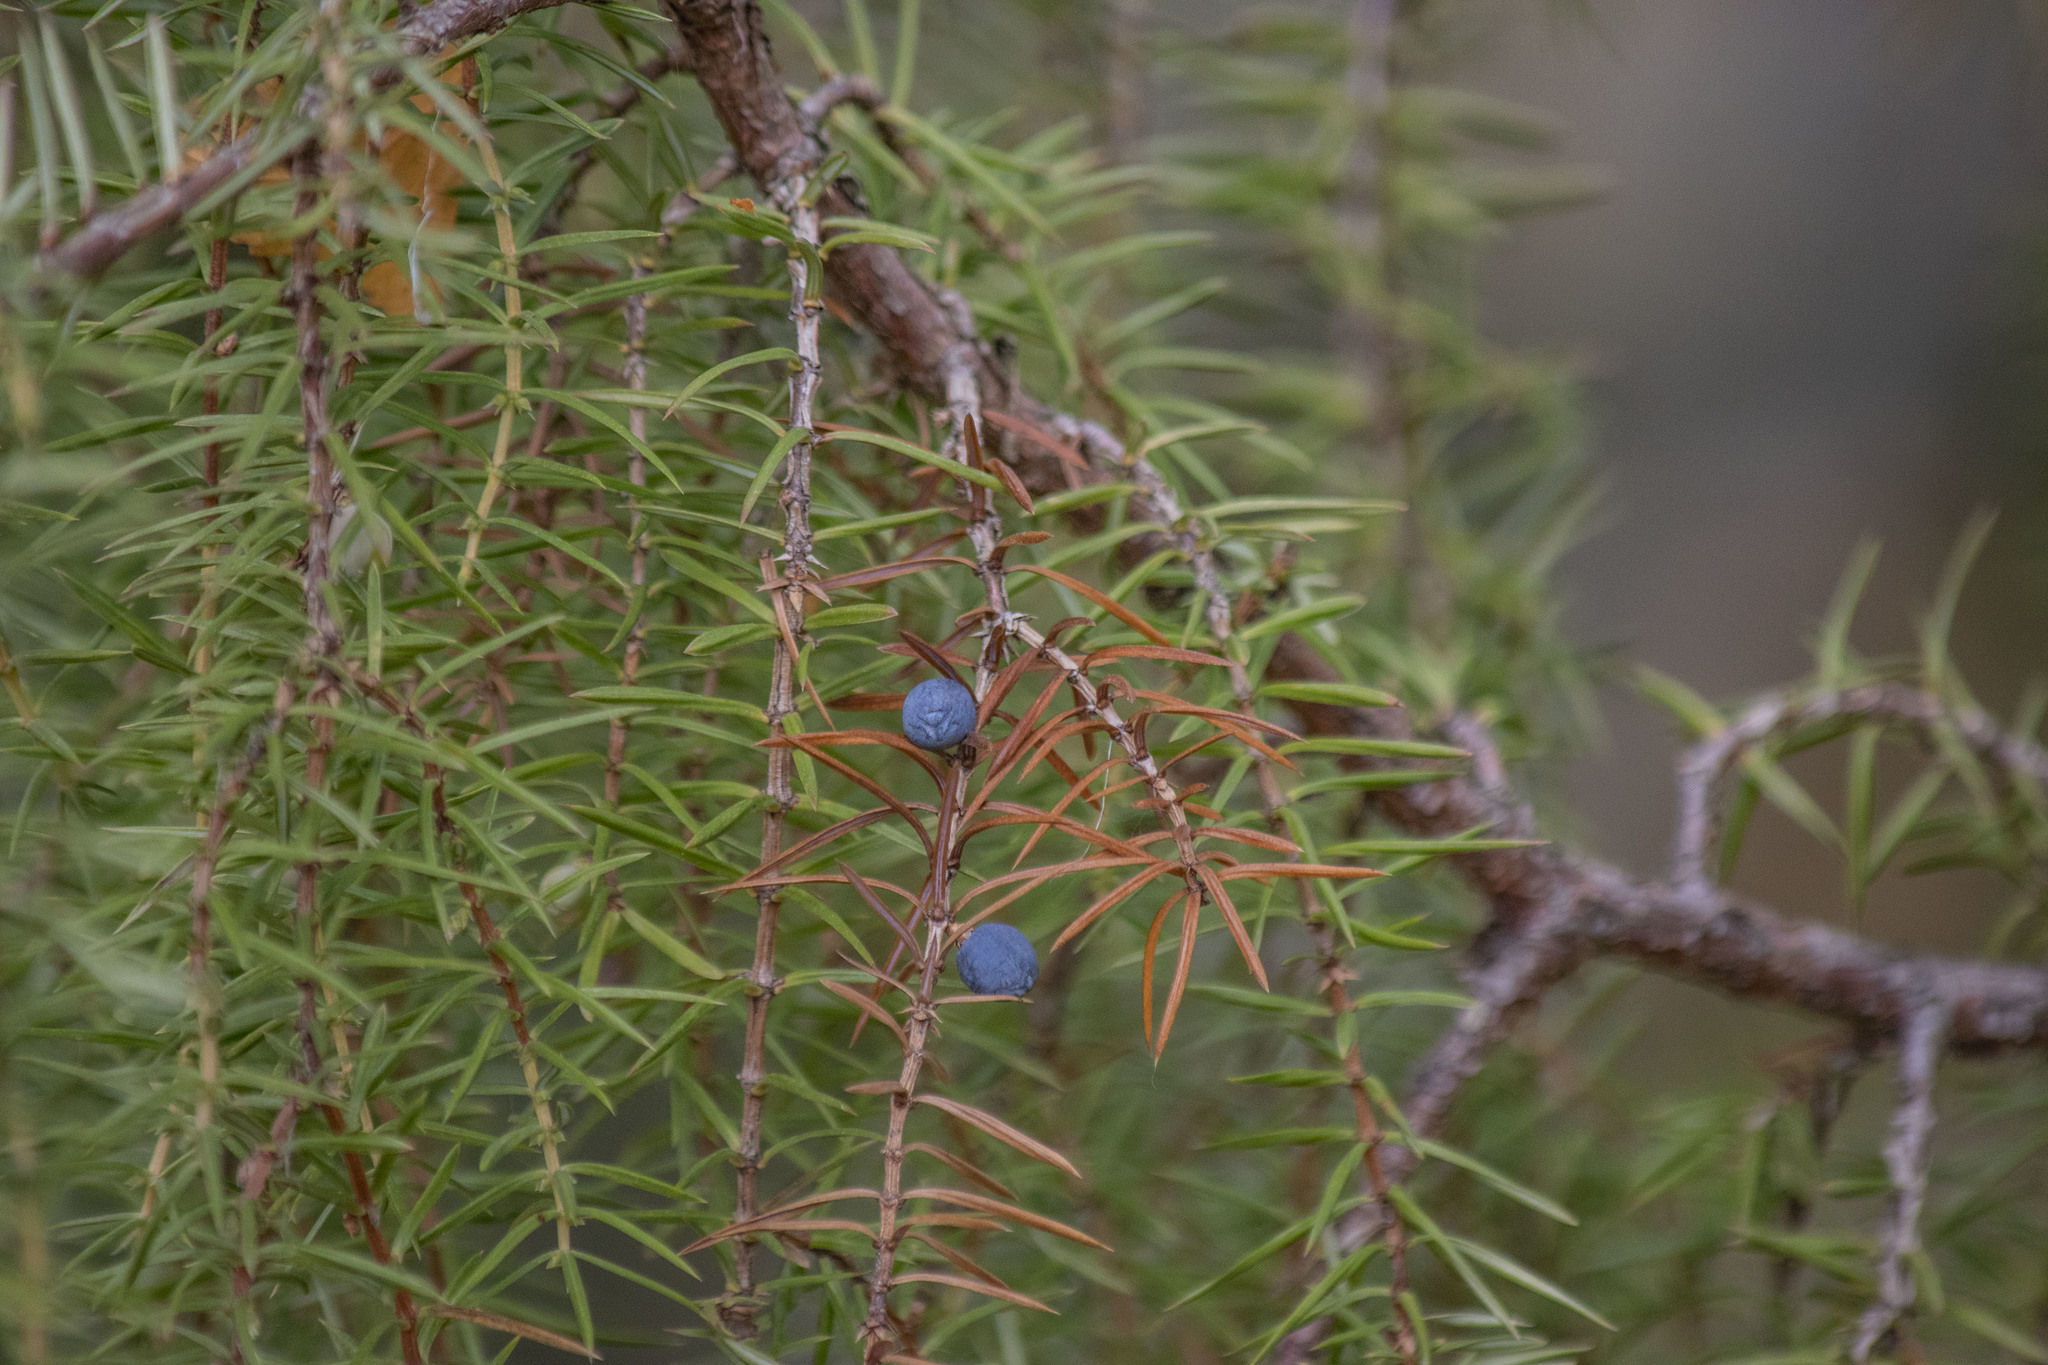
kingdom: Plantae
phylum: Tracheophyta
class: Pinopsida
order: Pinales
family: Cupressaceae
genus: Juniperus
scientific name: Juniperus communis
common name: Common juniper
